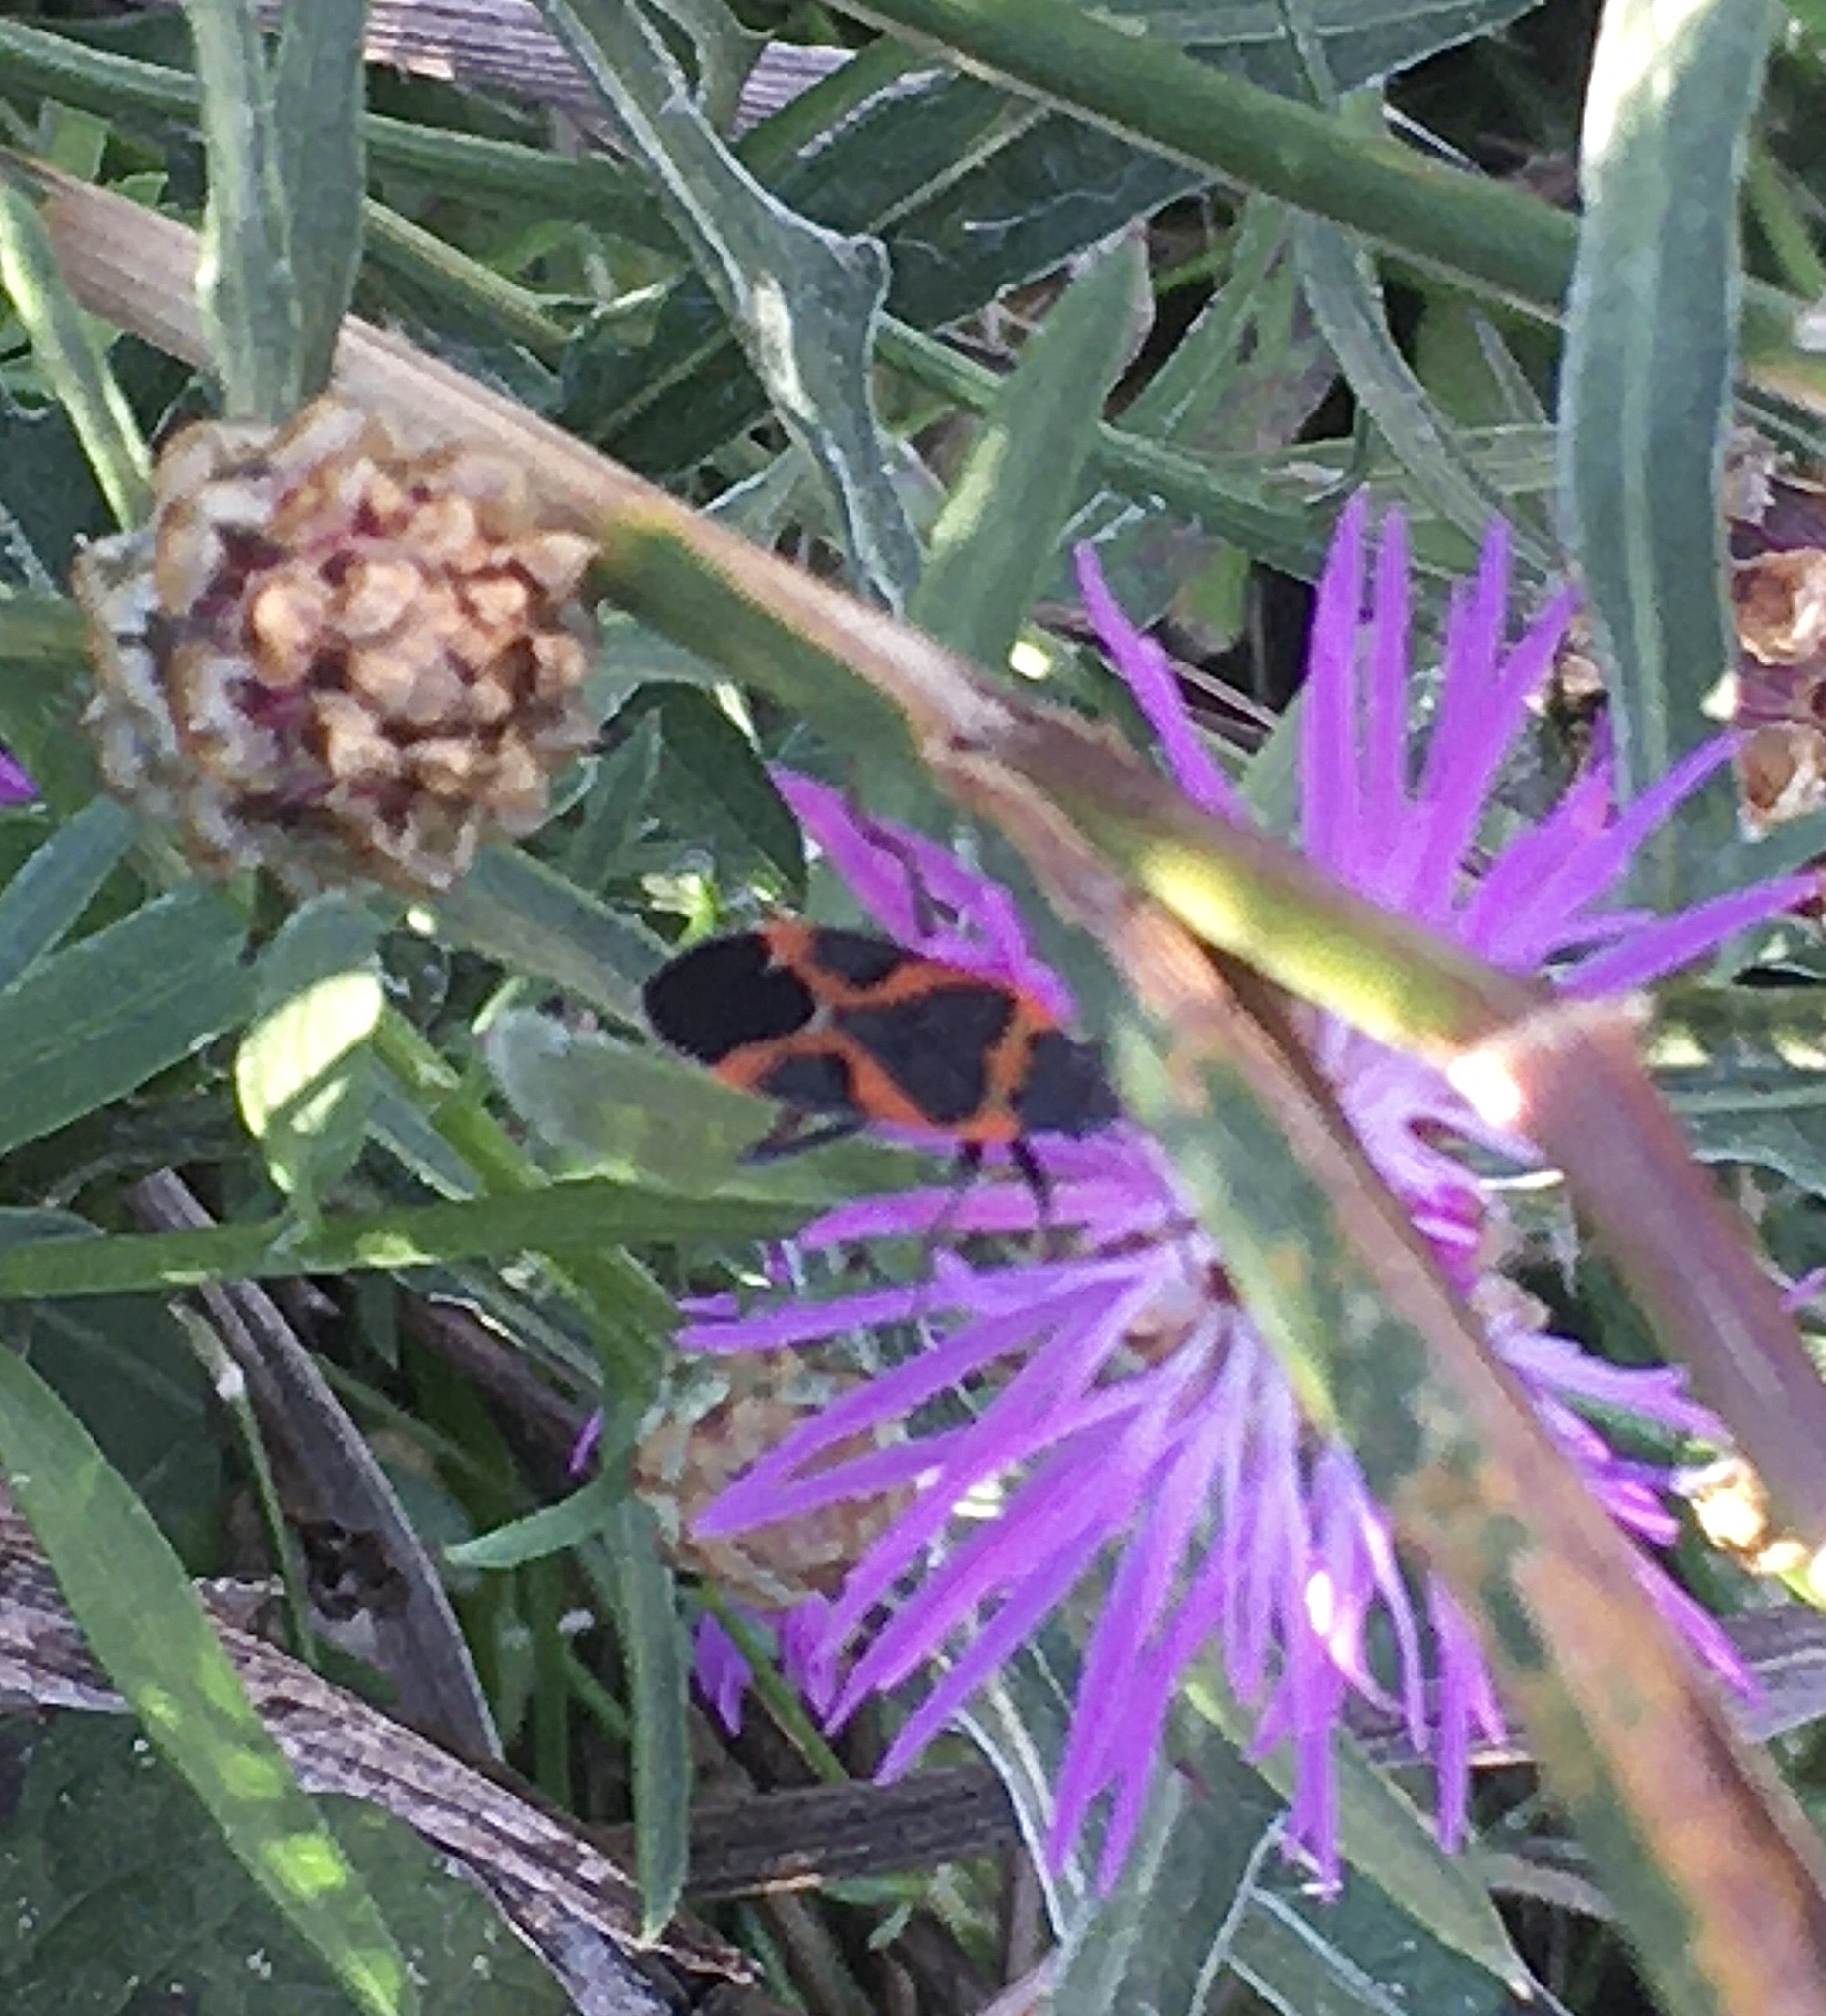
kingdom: Animalia
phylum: Arthropoda
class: Insecta
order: Hemiptera
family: Lygaeidae
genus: Lygaeus
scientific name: Lygaeus kalmii
